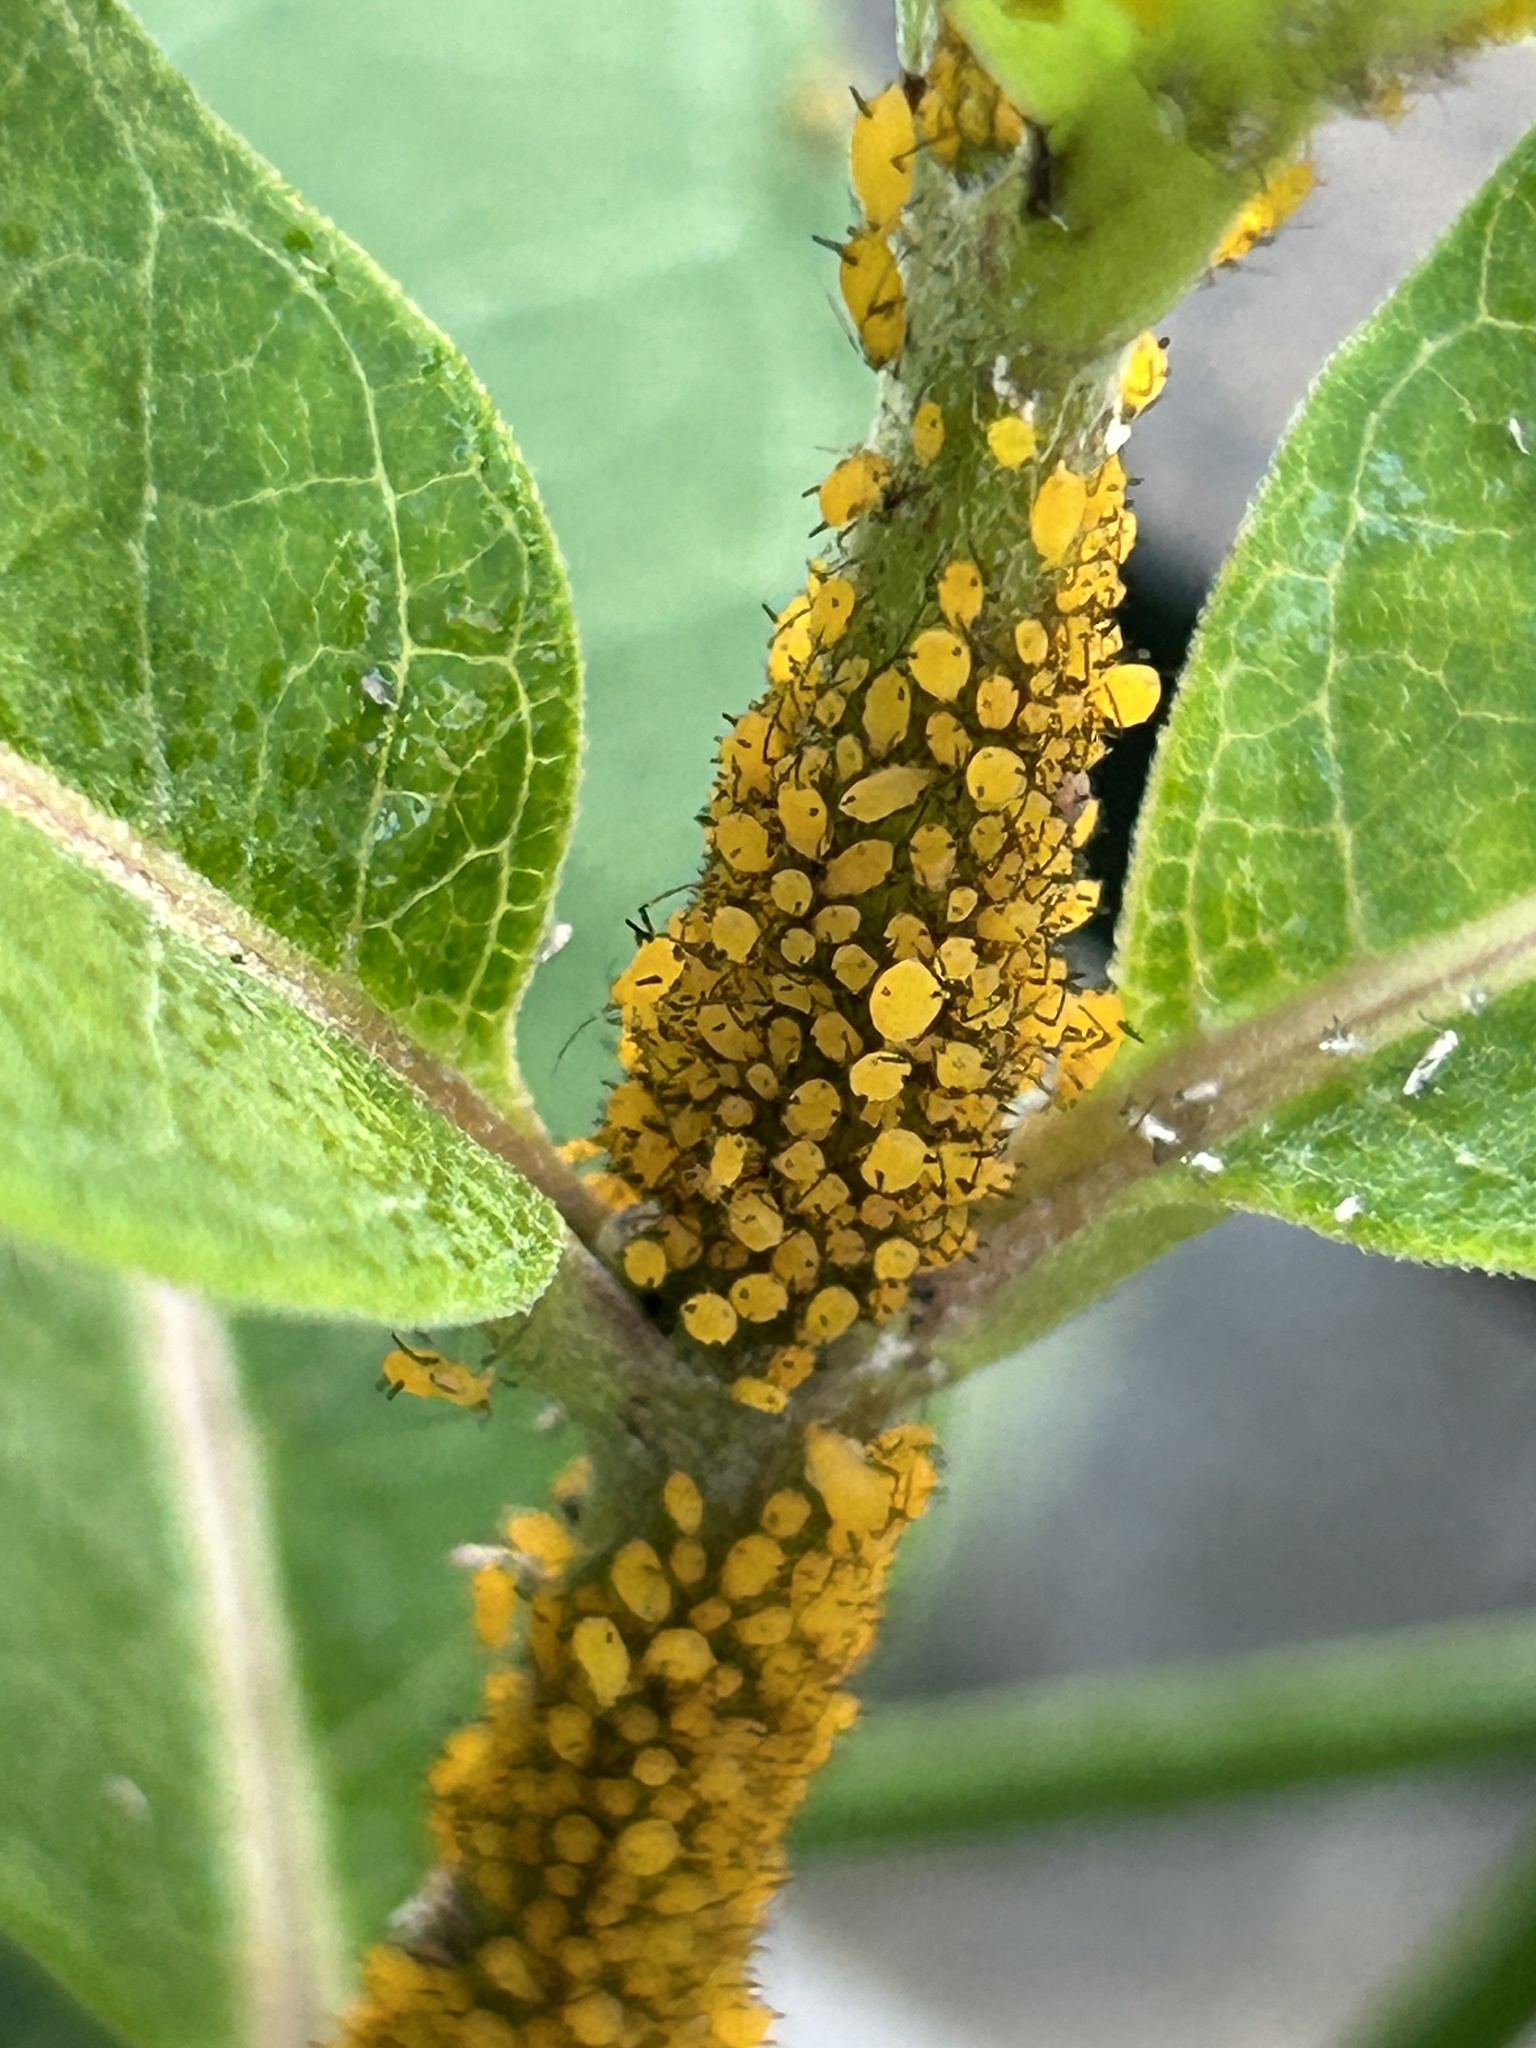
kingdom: Animalia
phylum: Arthropoda
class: Insecta
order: Hemiptera
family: Aphididae
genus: Aphis
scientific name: Aphis nerii
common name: Oleander aphid
